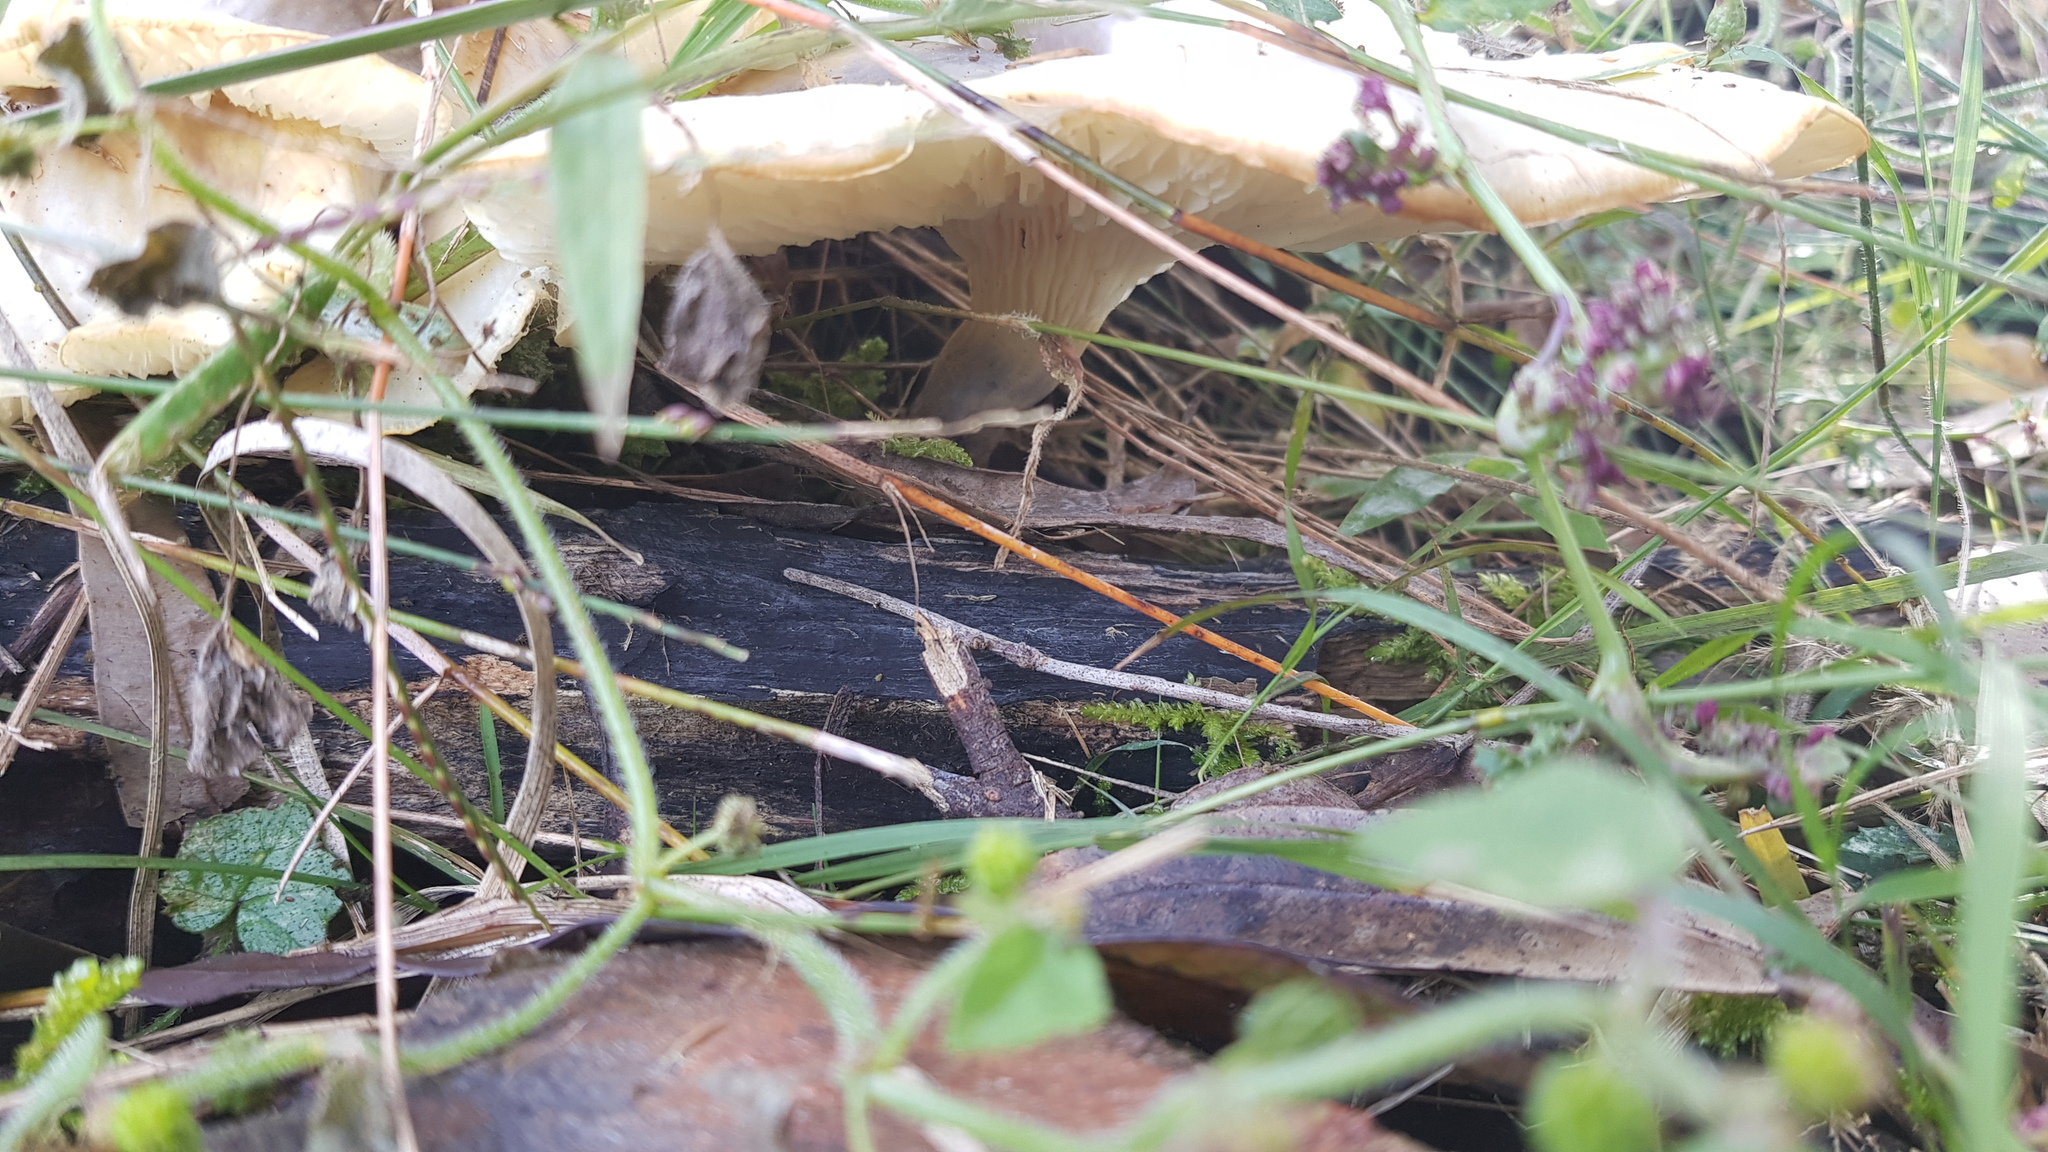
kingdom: Fungi
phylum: Basidiomycota
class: Agaricomycetes
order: Agaricales
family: Omphalotaceae
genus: Omphalotus
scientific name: Omphalotus nidiformis
